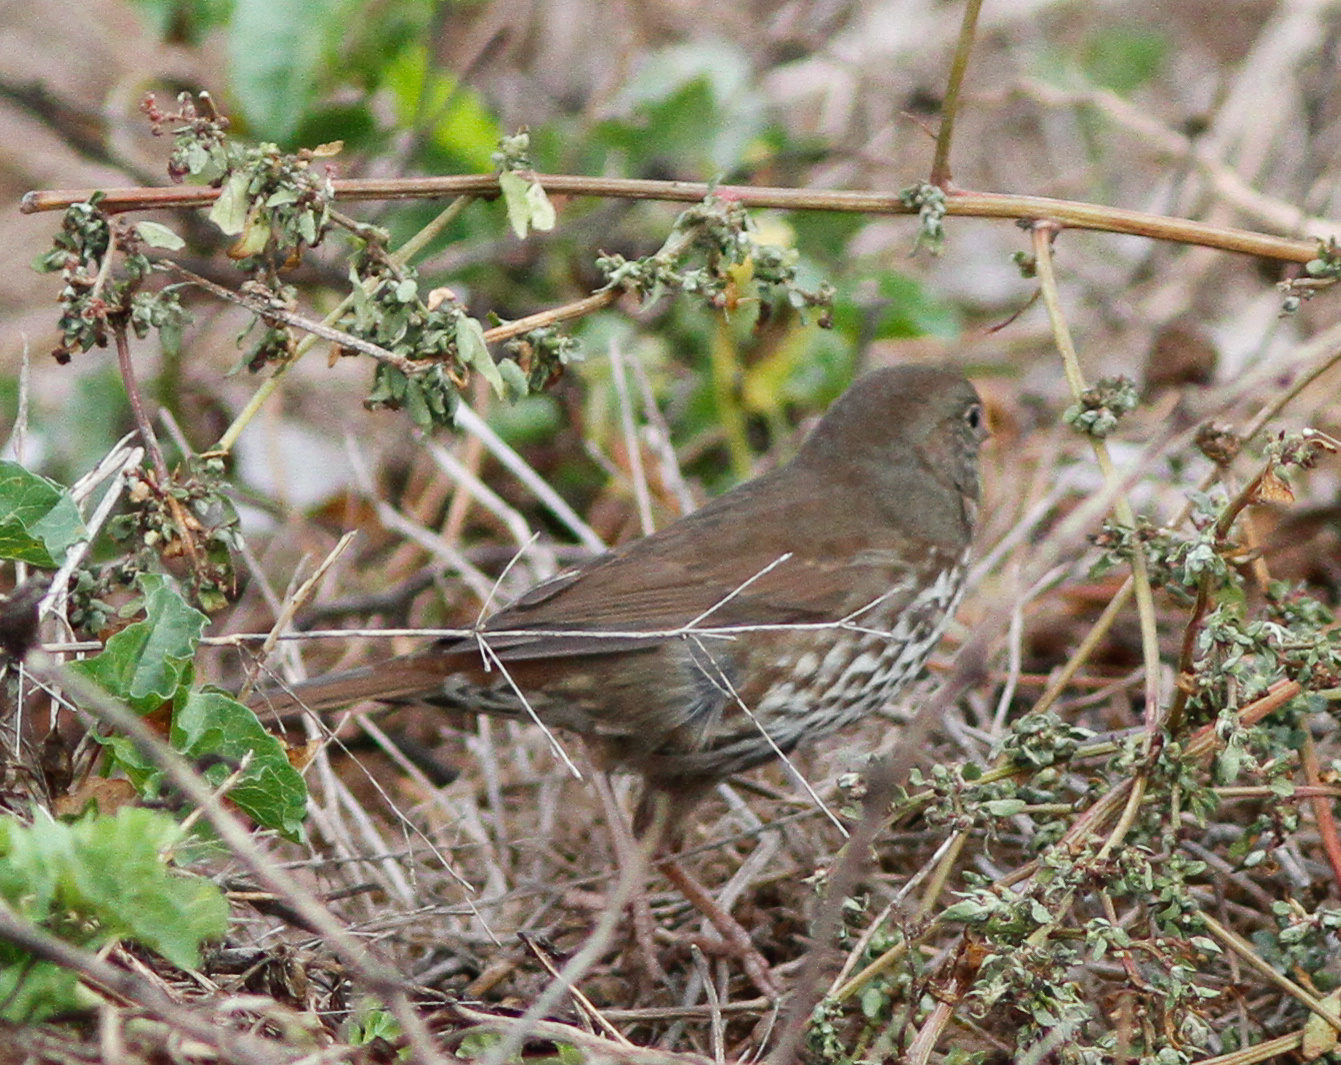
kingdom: Animalia
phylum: Chordata
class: Aves
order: Passeriformes
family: Passerellidae
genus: Passerella
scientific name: Passerella iliaca
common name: Fox sparrow
